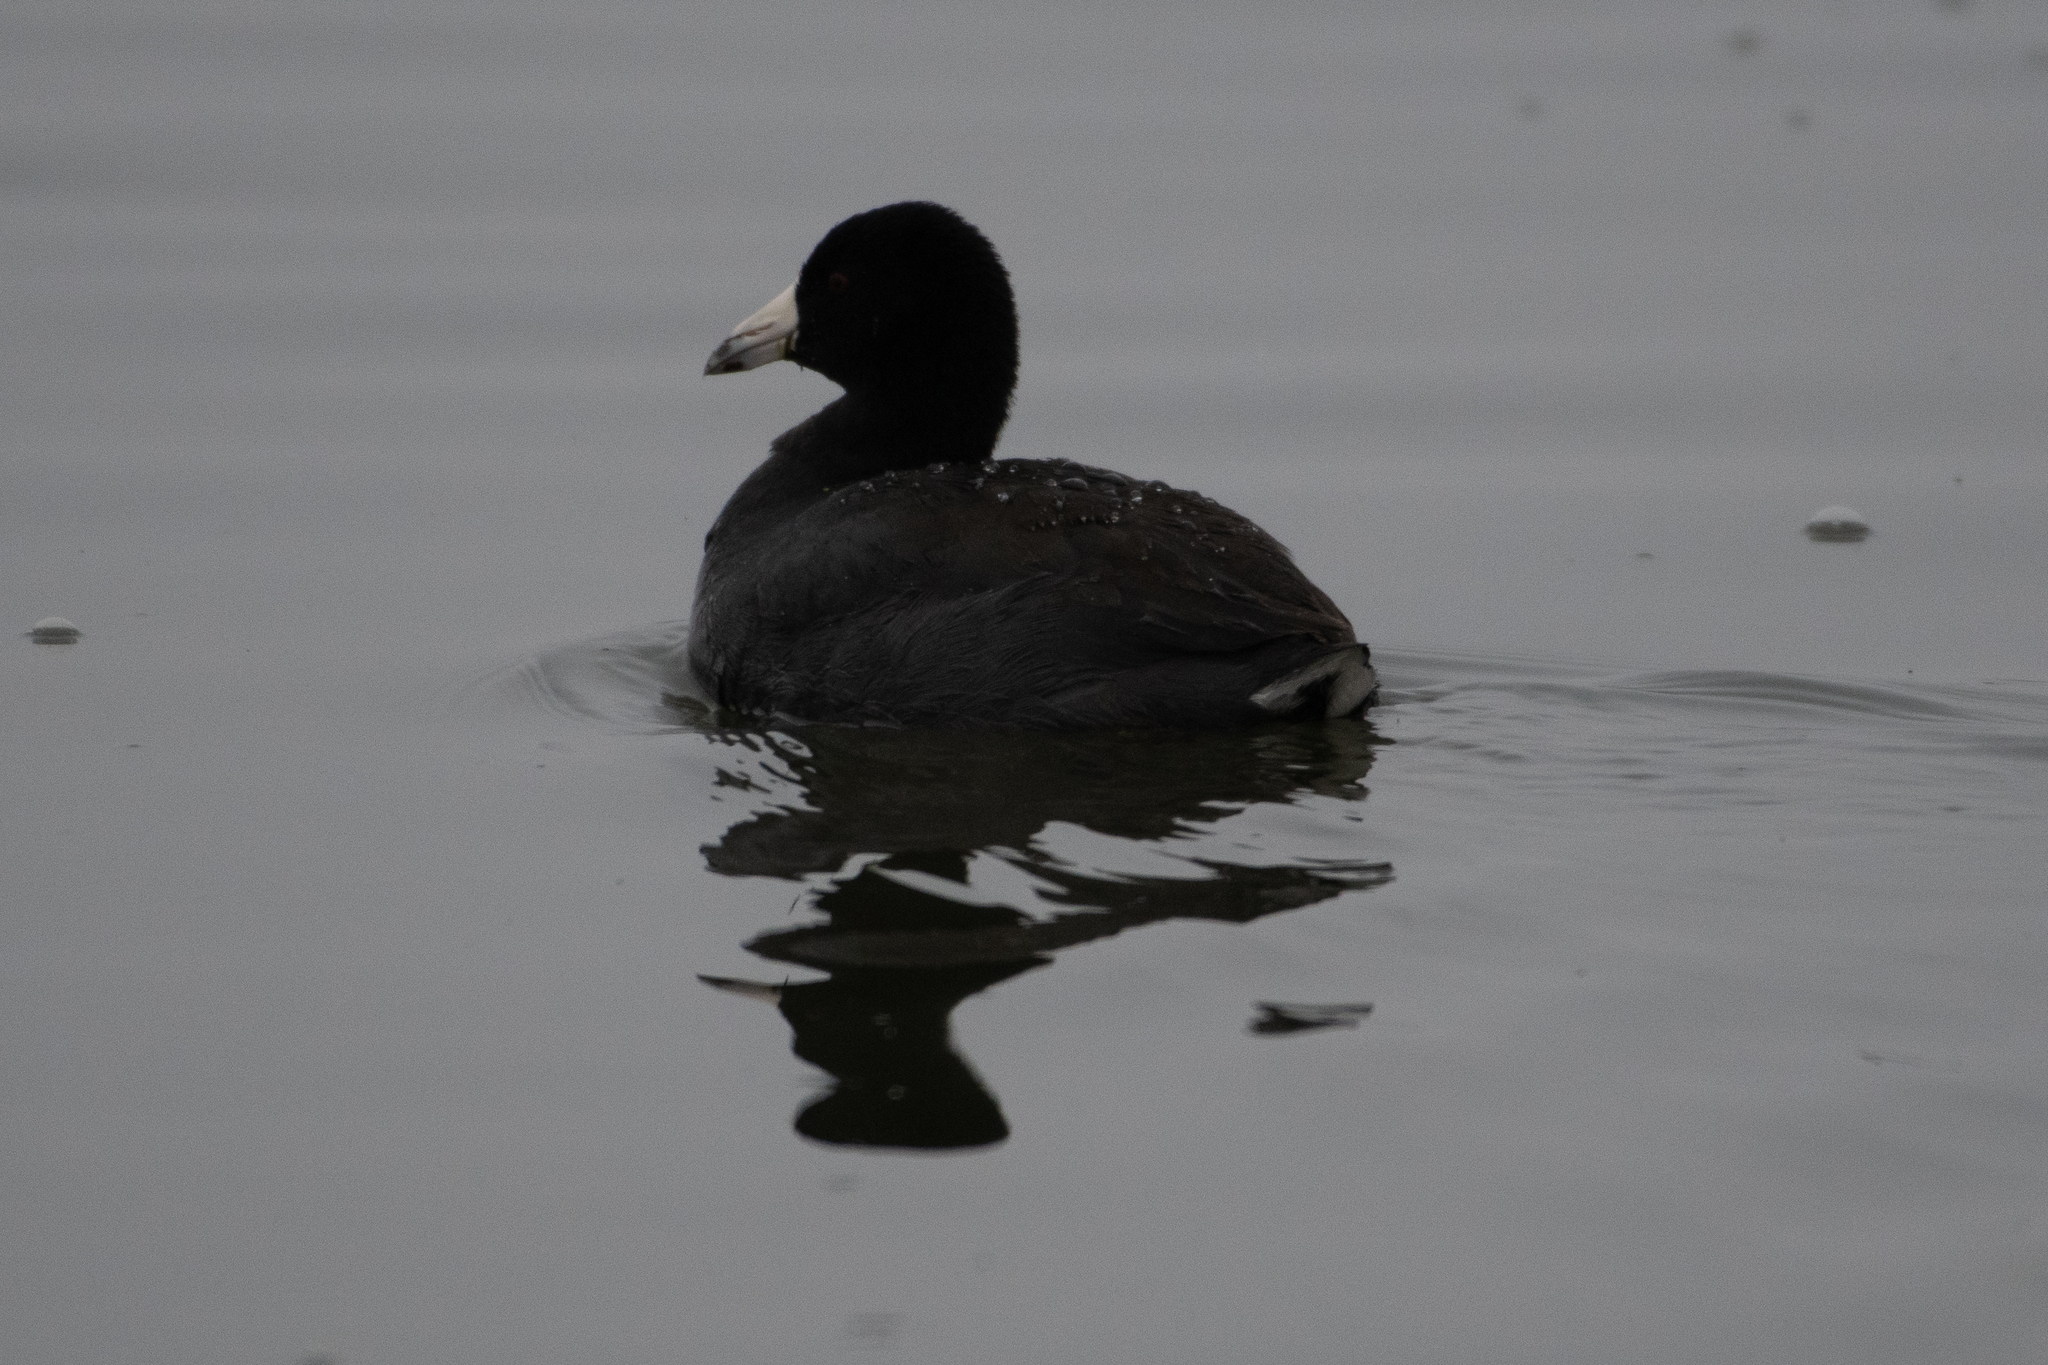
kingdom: Animalia
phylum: Chordata
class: Aves
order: Gruiformes
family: Rallidae
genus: Fulica
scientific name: Fulica americana
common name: American coot
